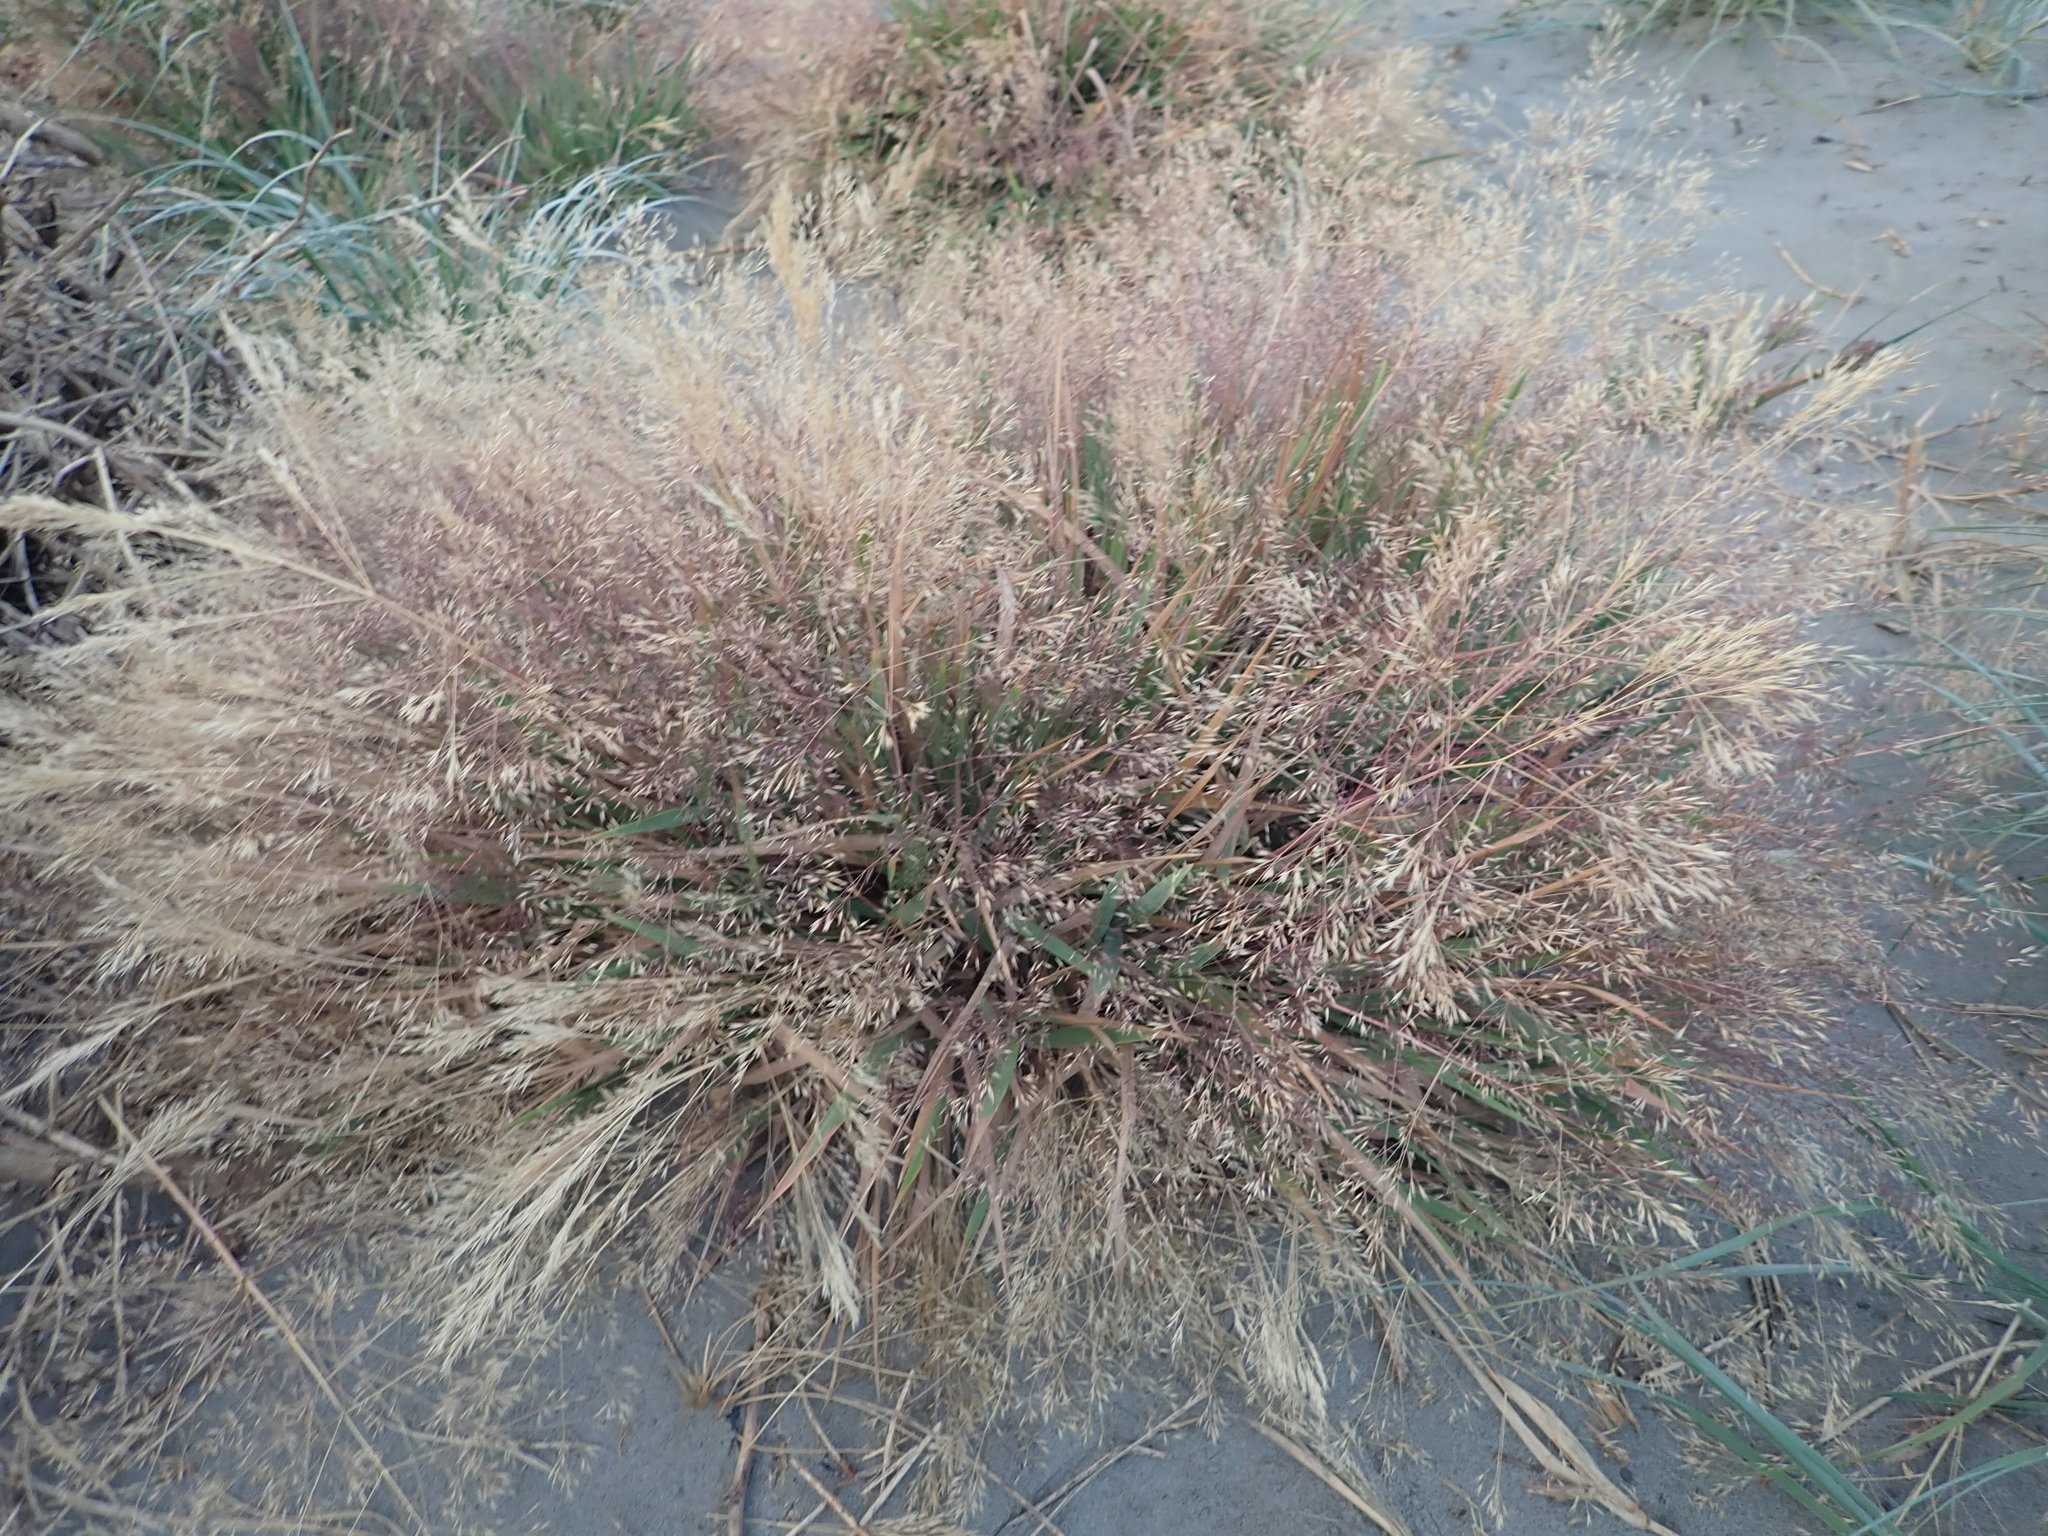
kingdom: Plantae
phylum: Tracheophyta
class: Liliopsida
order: Poales
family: Poaceae
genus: Lachnagrostis
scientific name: Lachnagrostis billardierei
